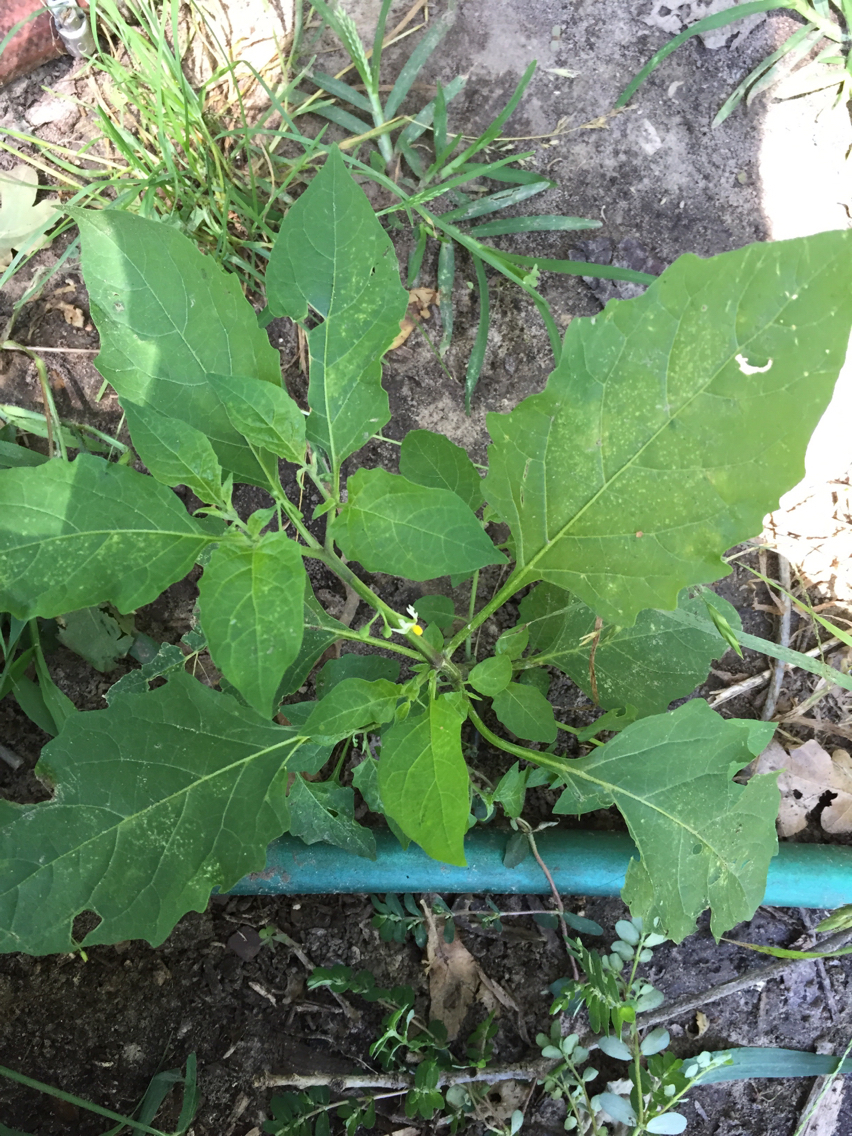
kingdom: Plantae
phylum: Tracheophyta
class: Magnoliopsida
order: Solanales
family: Solanaceae
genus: Solanum
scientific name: Solanum emulans
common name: Eastern black nightshade
